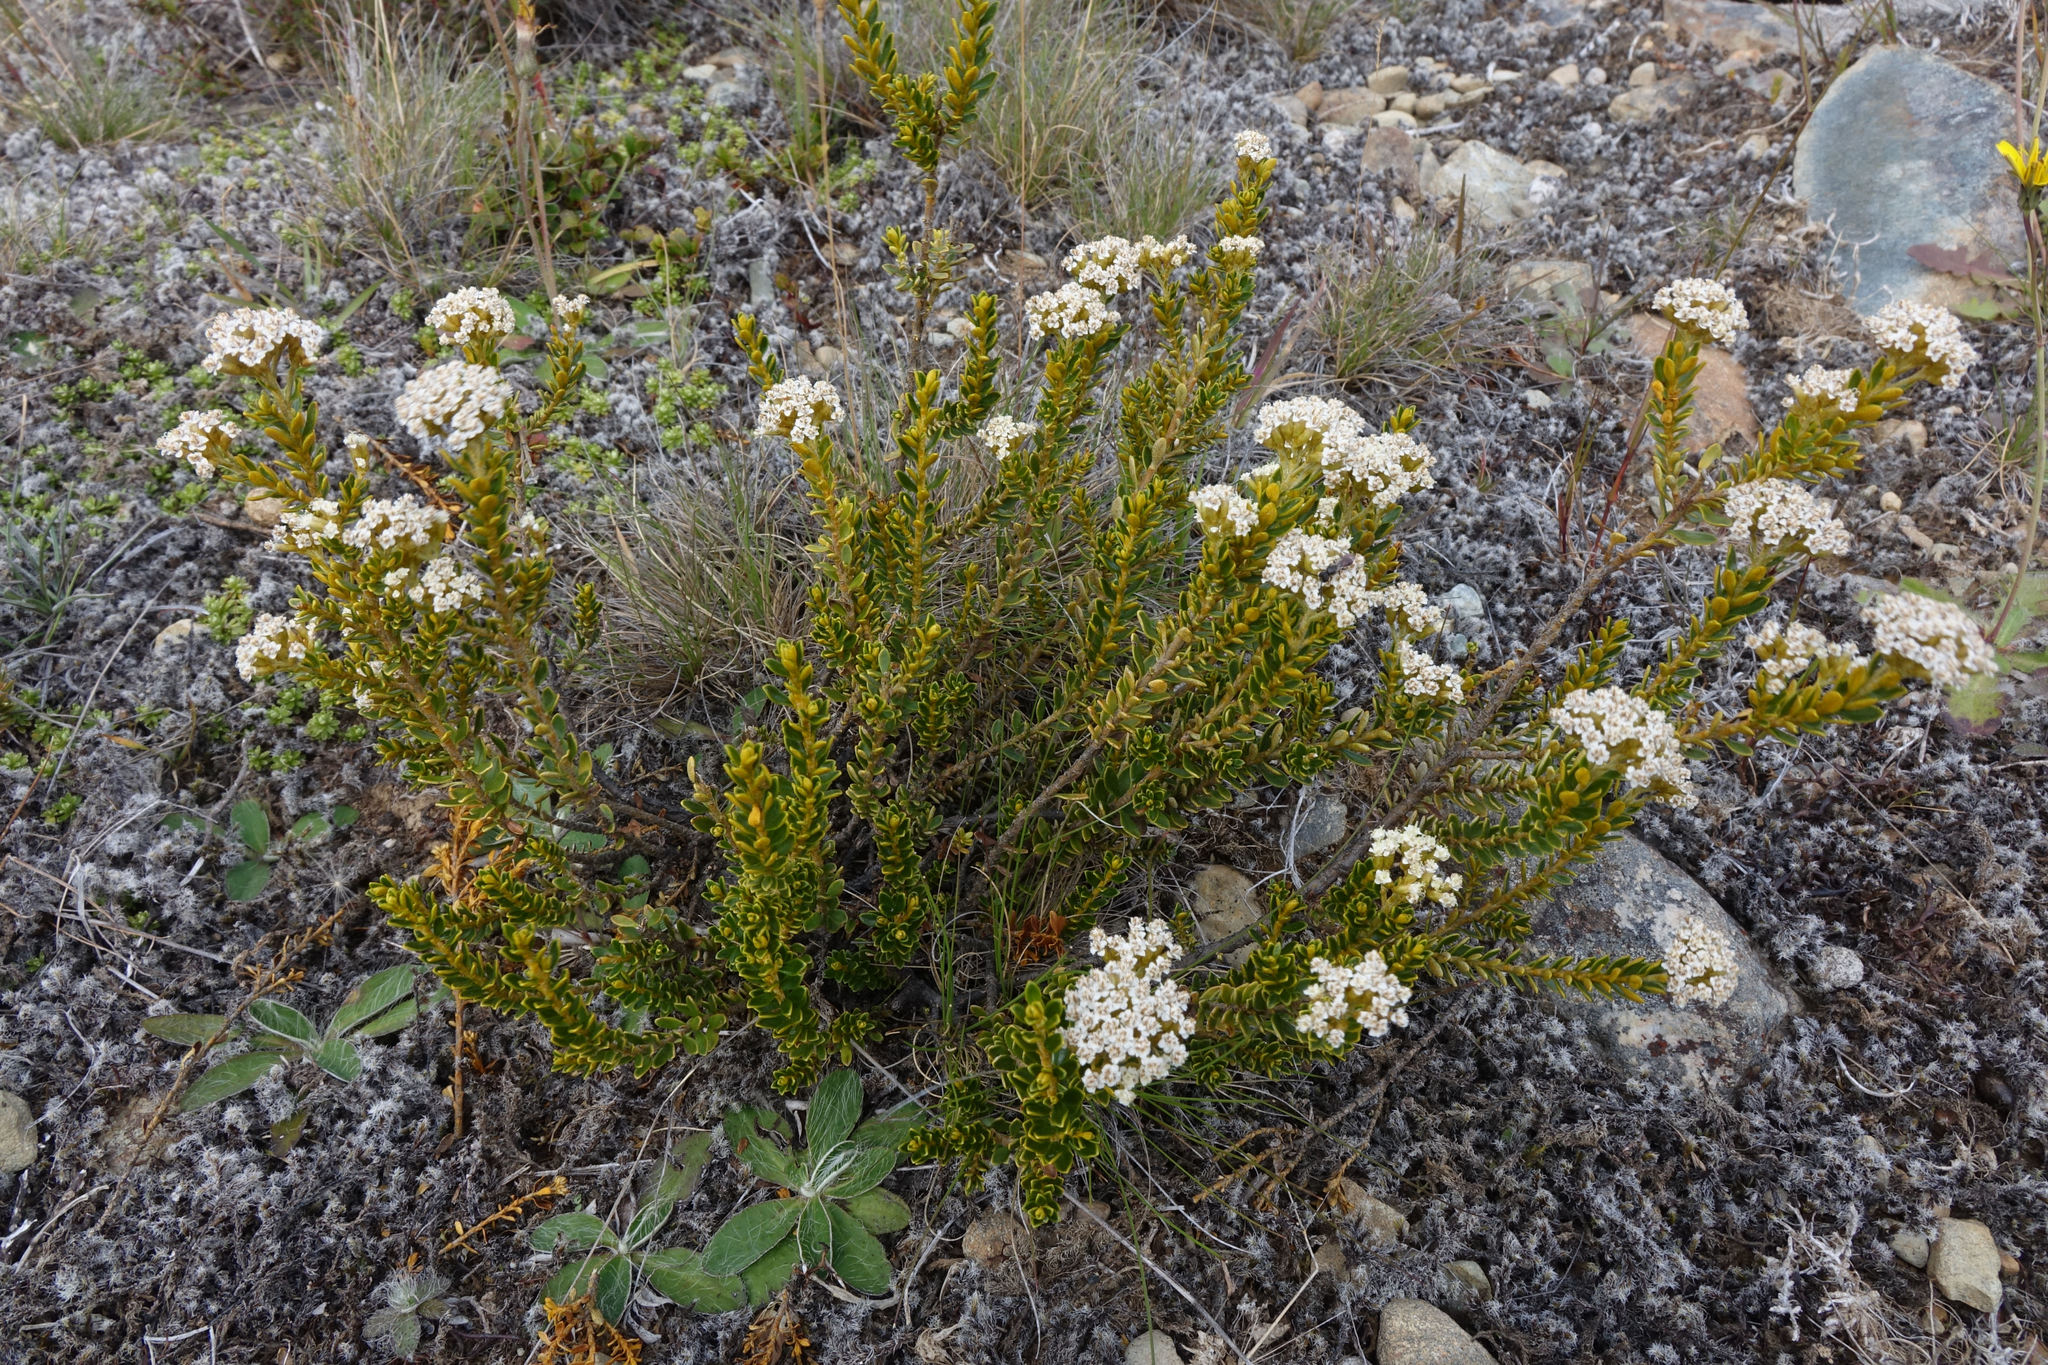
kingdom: Plantae
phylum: Tracheophyta
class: Magnoliopsida
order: Asterales
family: Asteraceae
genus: Ozothamnus
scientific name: Ozothamnus leptophyllus
